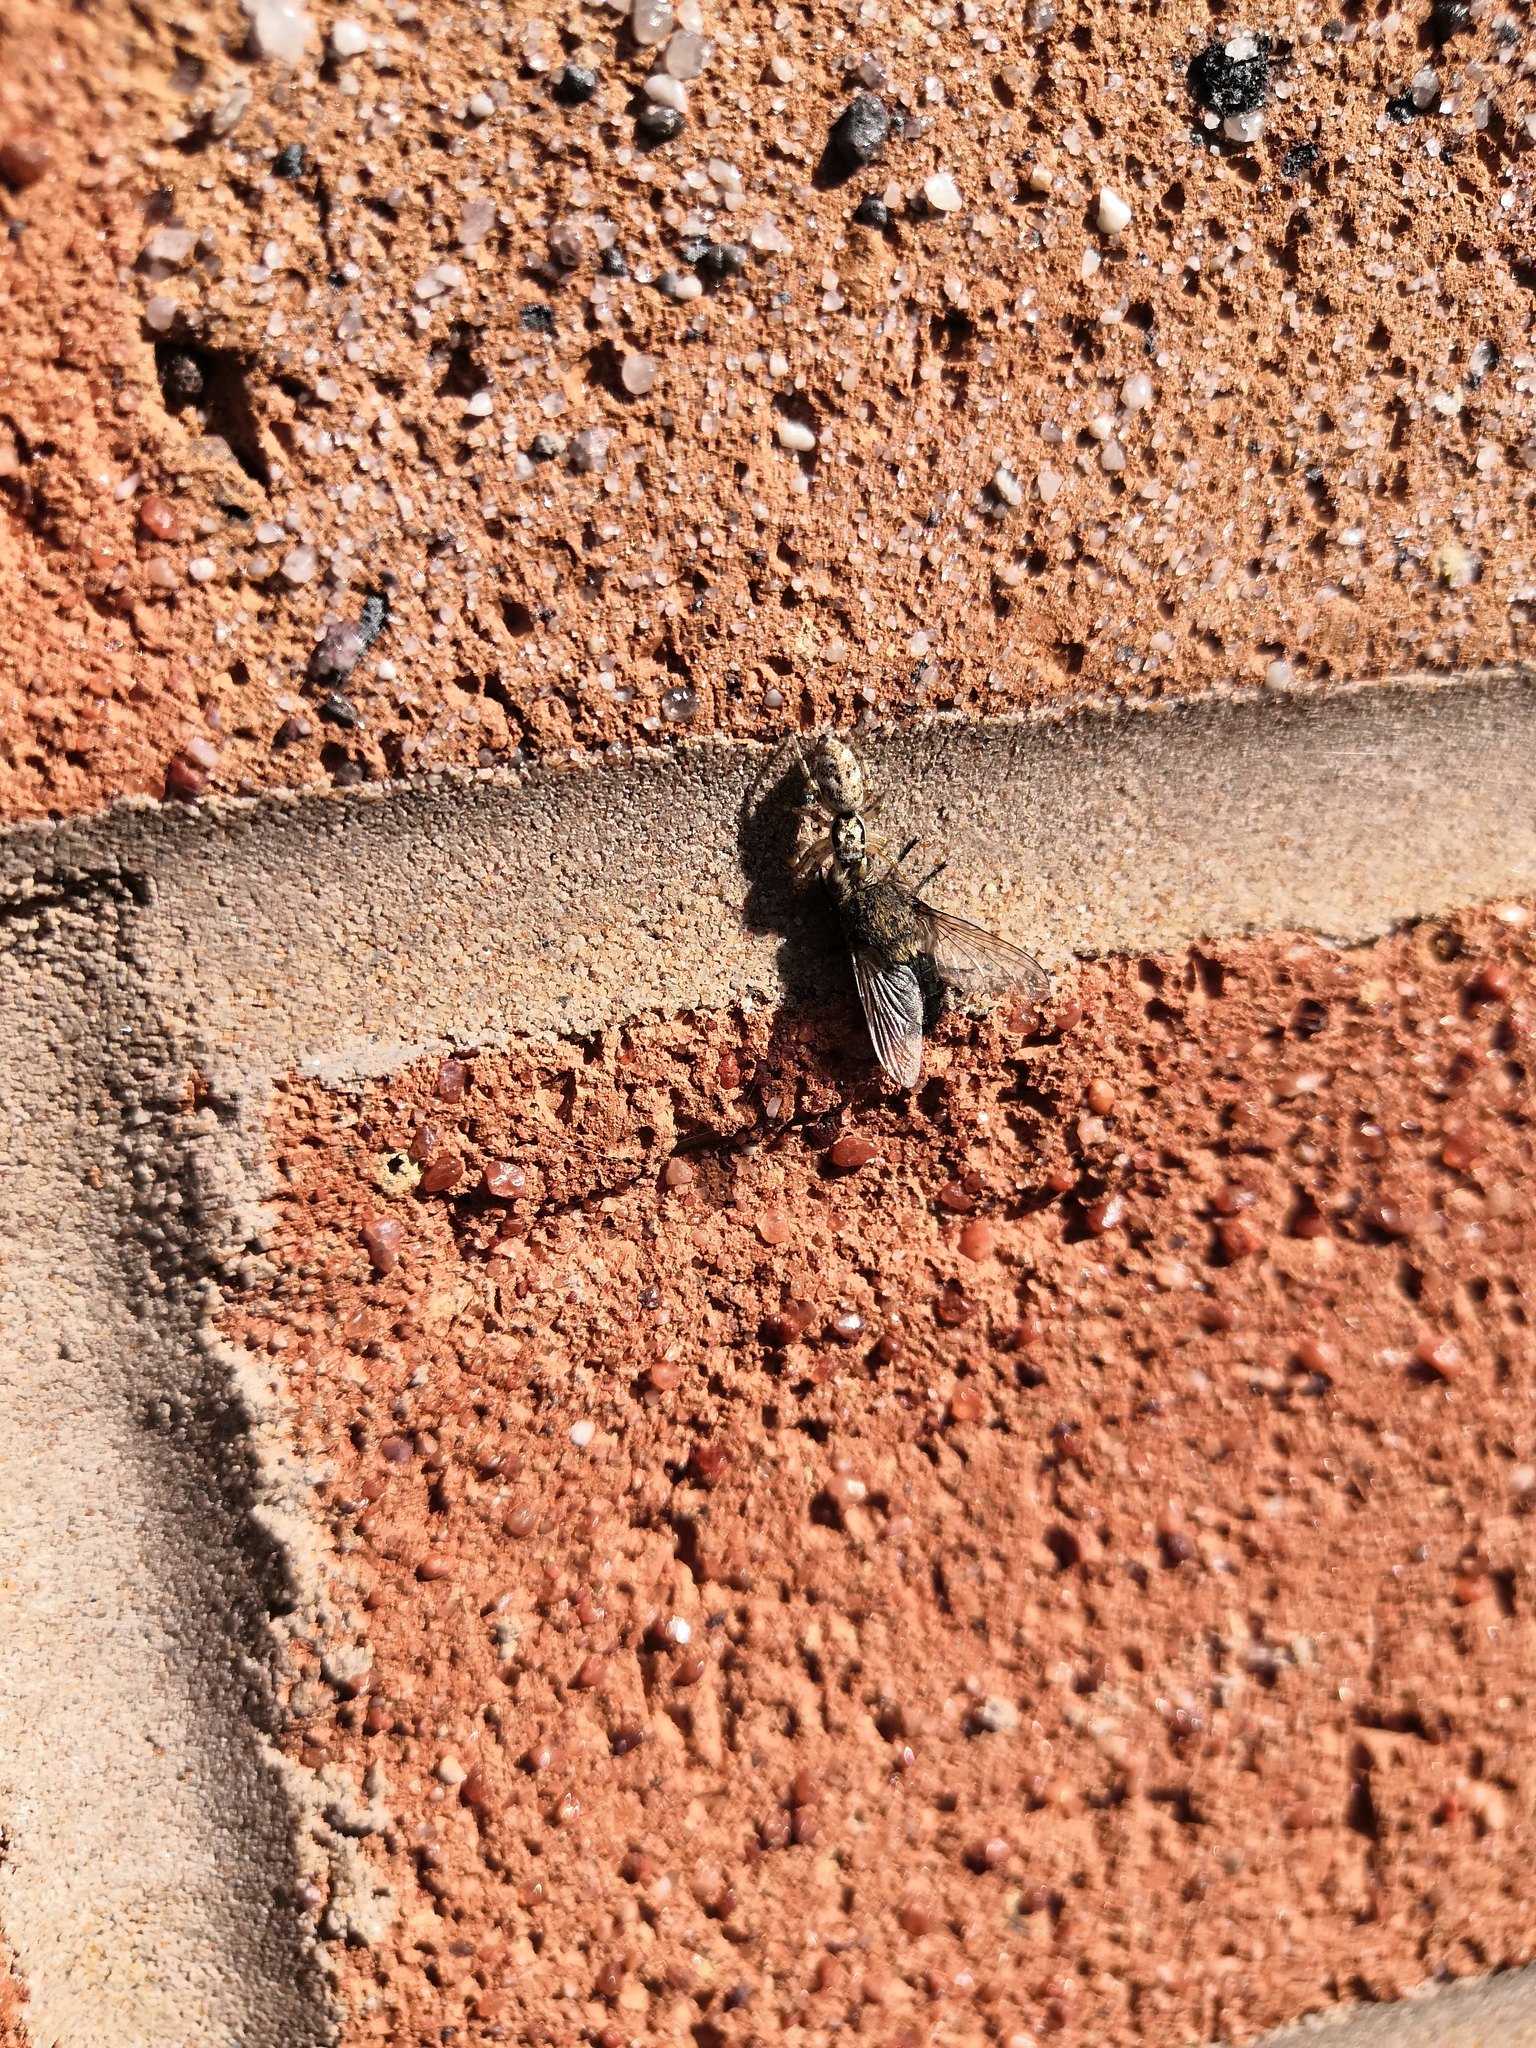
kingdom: Animalia
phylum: Arthropoda
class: Arachnida
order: Araneae
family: Salticidae
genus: Salticus
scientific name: Salticus scenicus
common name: Zebra jumper
